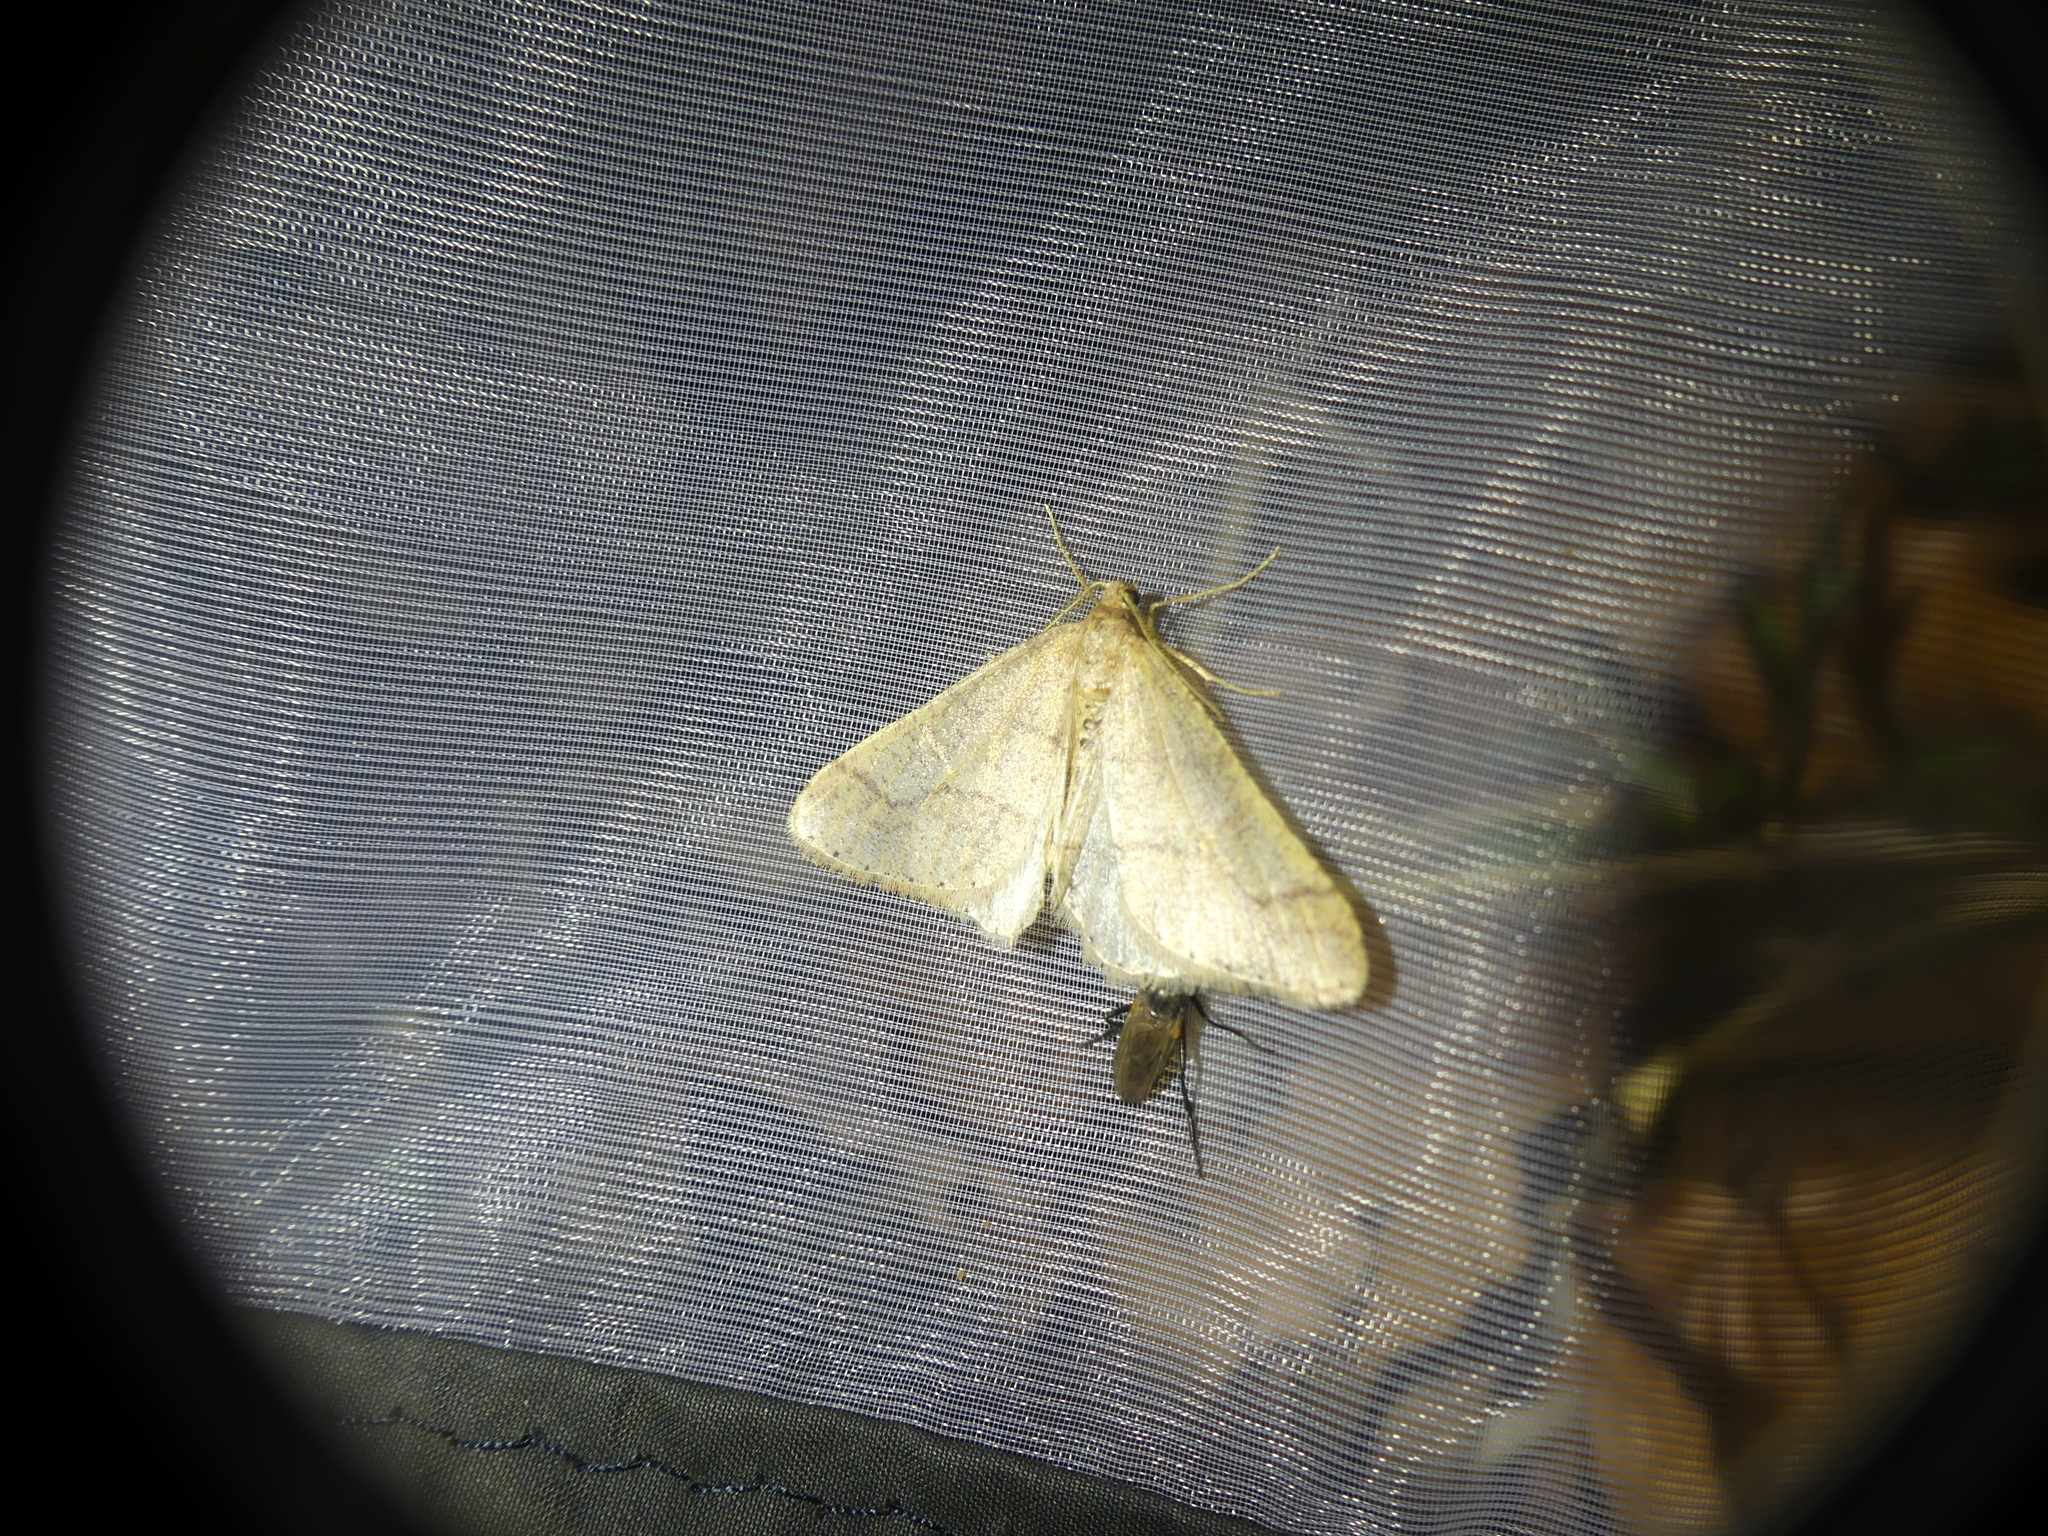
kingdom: Animalia
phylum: Arthropoda
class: Insecta
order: Lepidoptera
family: Geometridae
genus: Agriopis
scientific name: Agriopis marginaria
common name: Dotted border
